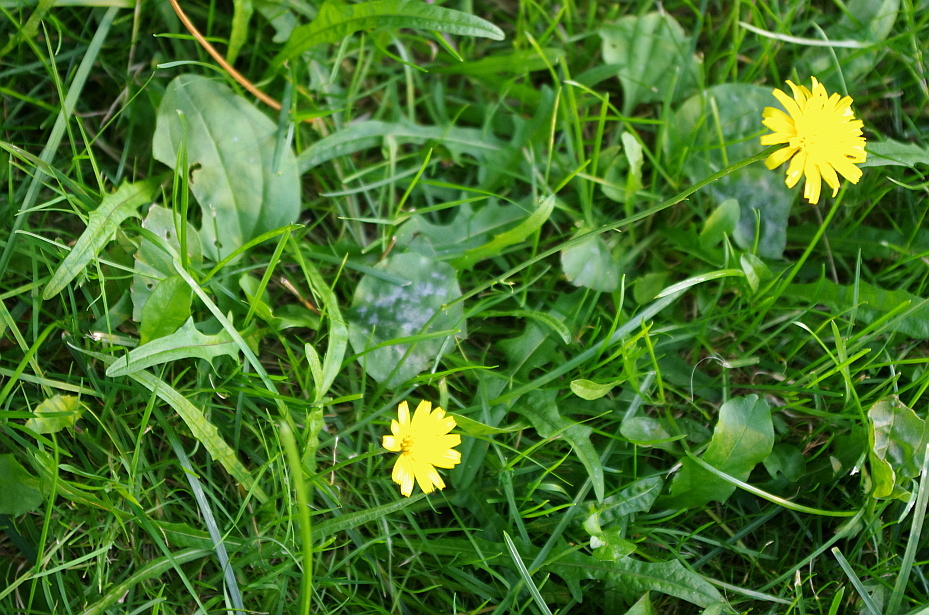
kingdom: Plantae
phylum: Tracheophyta
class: Magnoliopsida
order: Asterales
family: Asteraceae
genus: Scorzoneroides
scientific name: Scorzoneroides autumnalis
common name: Autumn hawkbit
